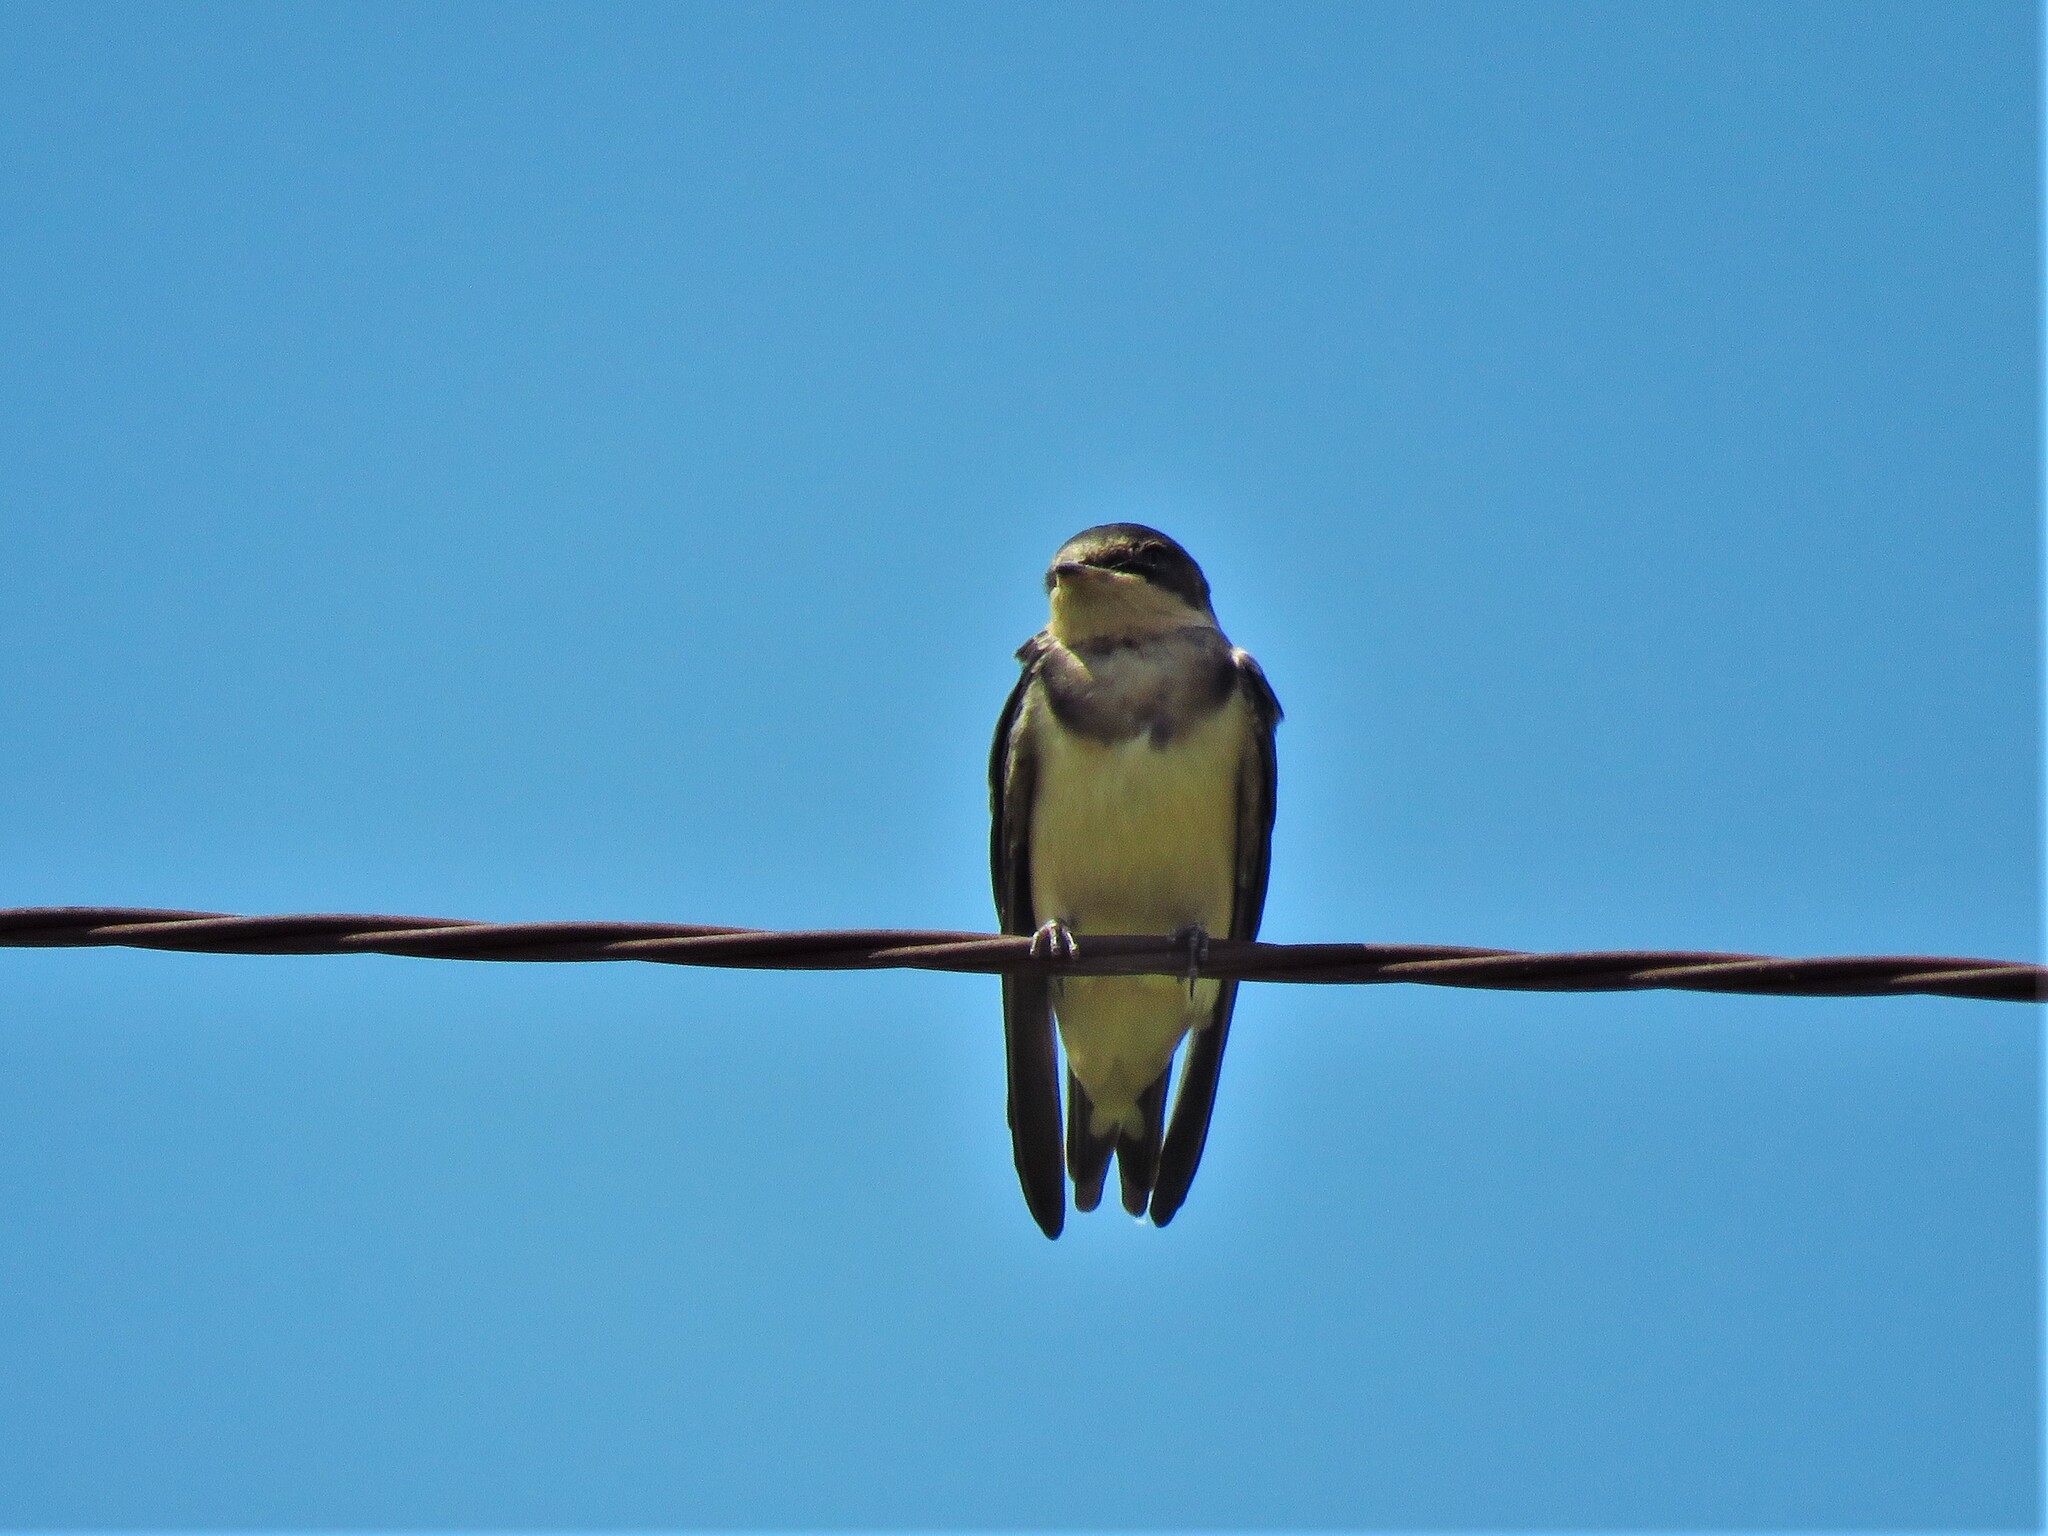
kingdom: Animalia
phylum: Chordata
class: Aves
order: Passeriformes
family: Hirundinidae
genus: Hirundo
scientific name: Hirundo rustica
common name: Barn swallow
